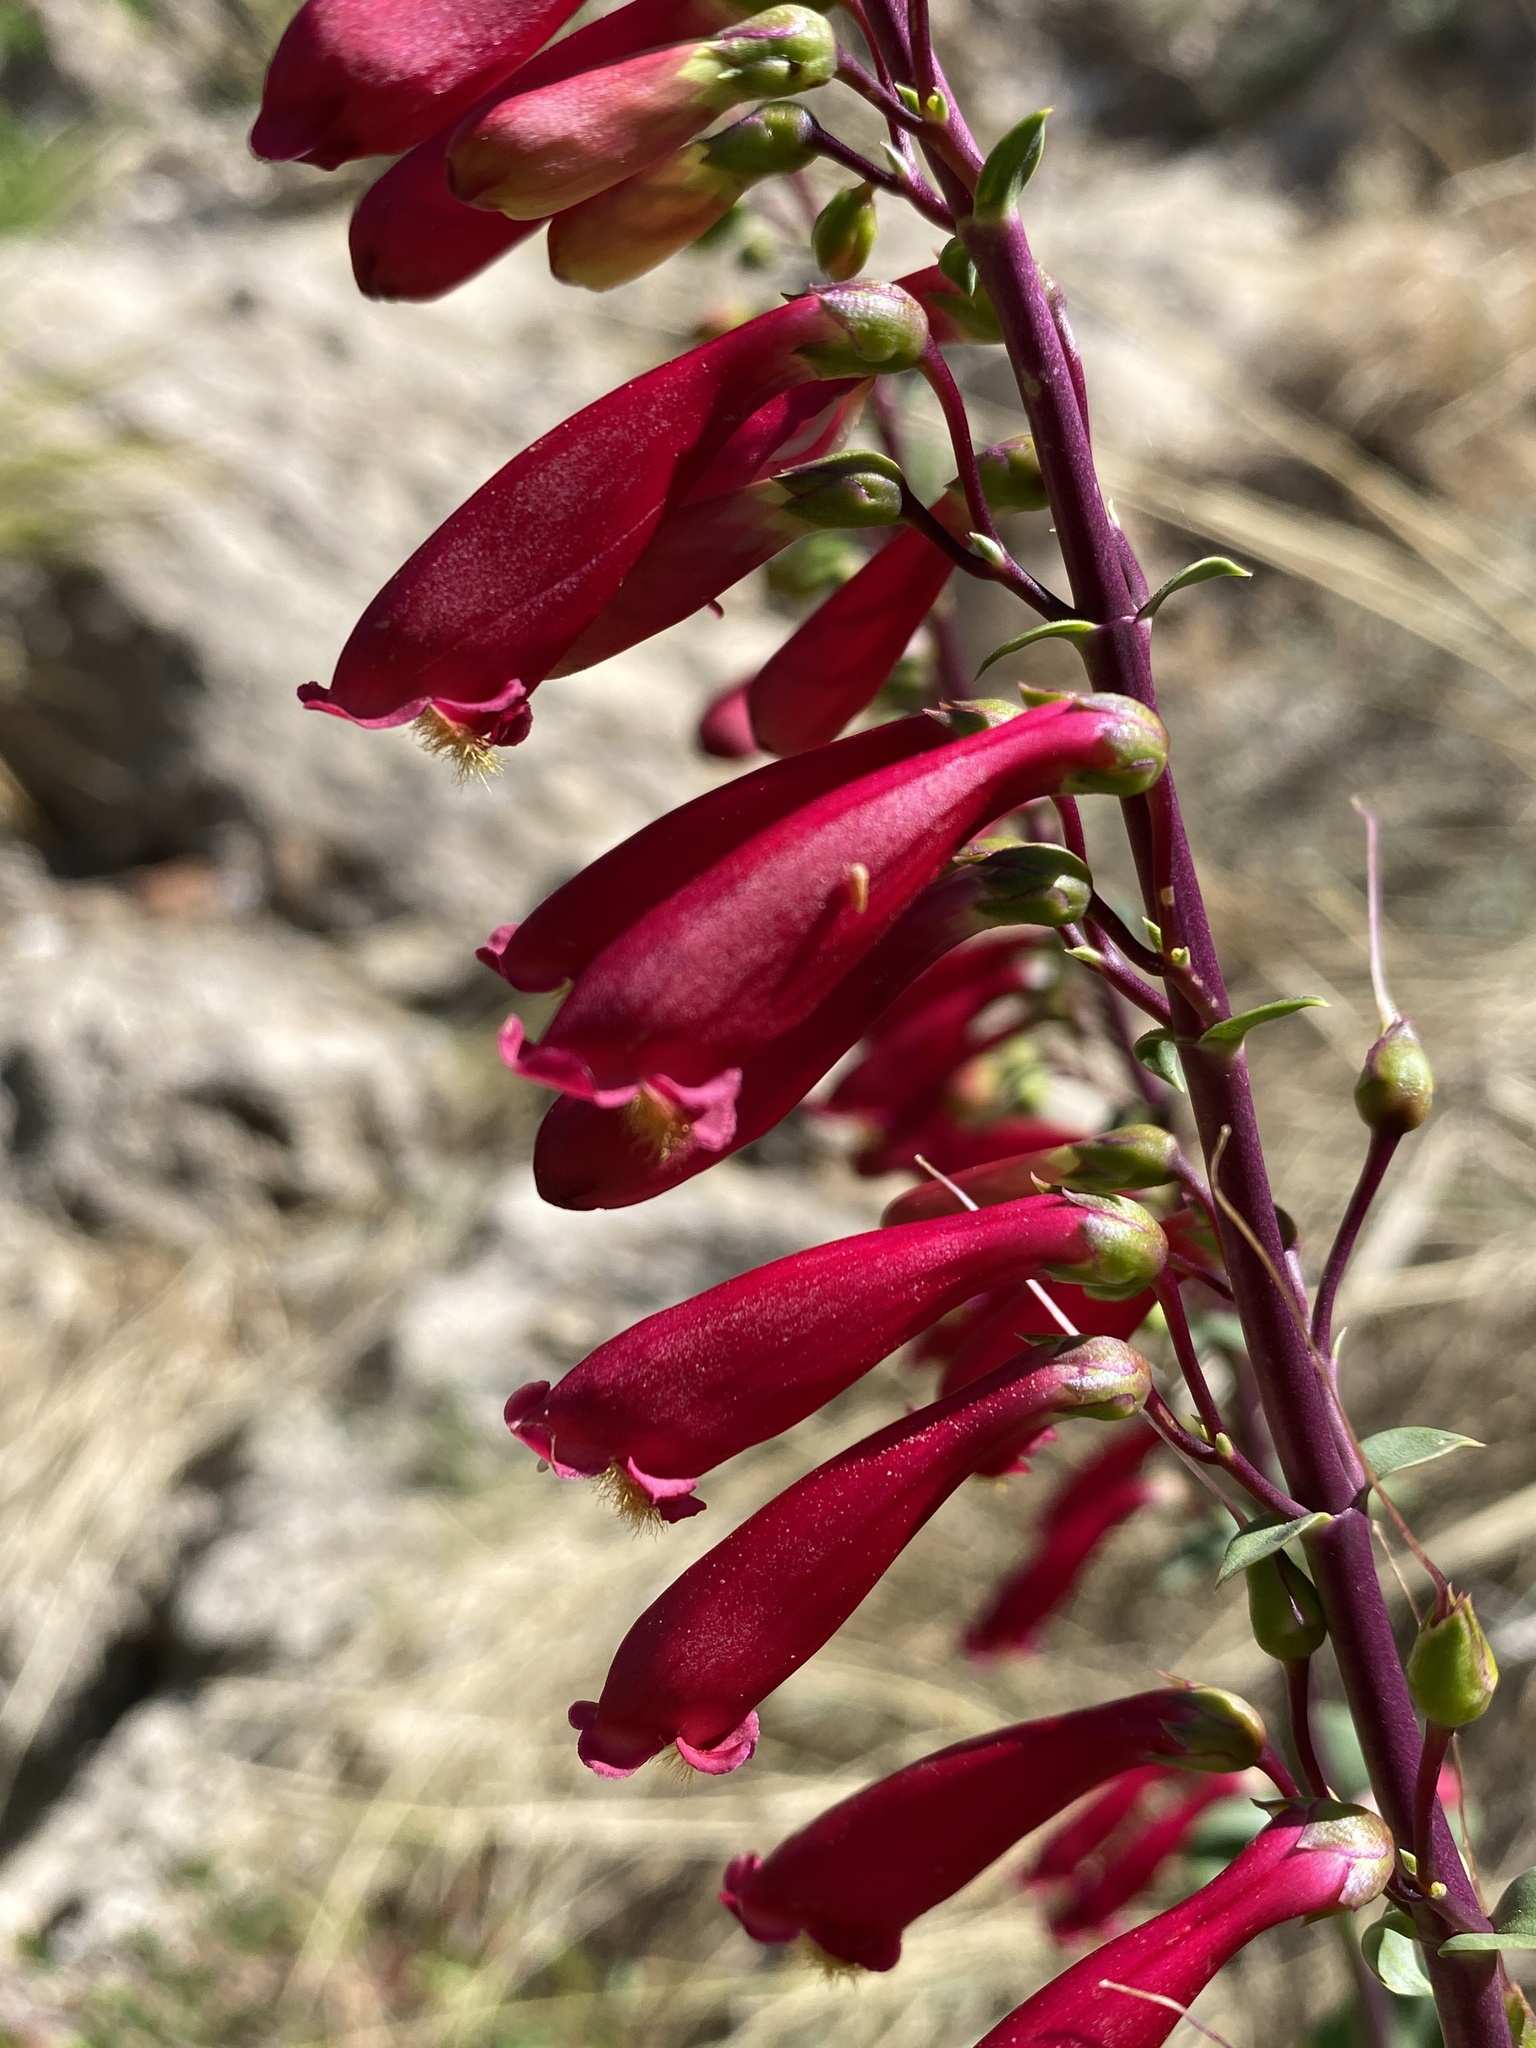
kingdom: Plantae
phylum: Tracheophyta
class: Magnoliopsida
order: Lamiales
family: Plantaginaceae
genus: Penstemon
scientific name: Penstemon cardinalis
